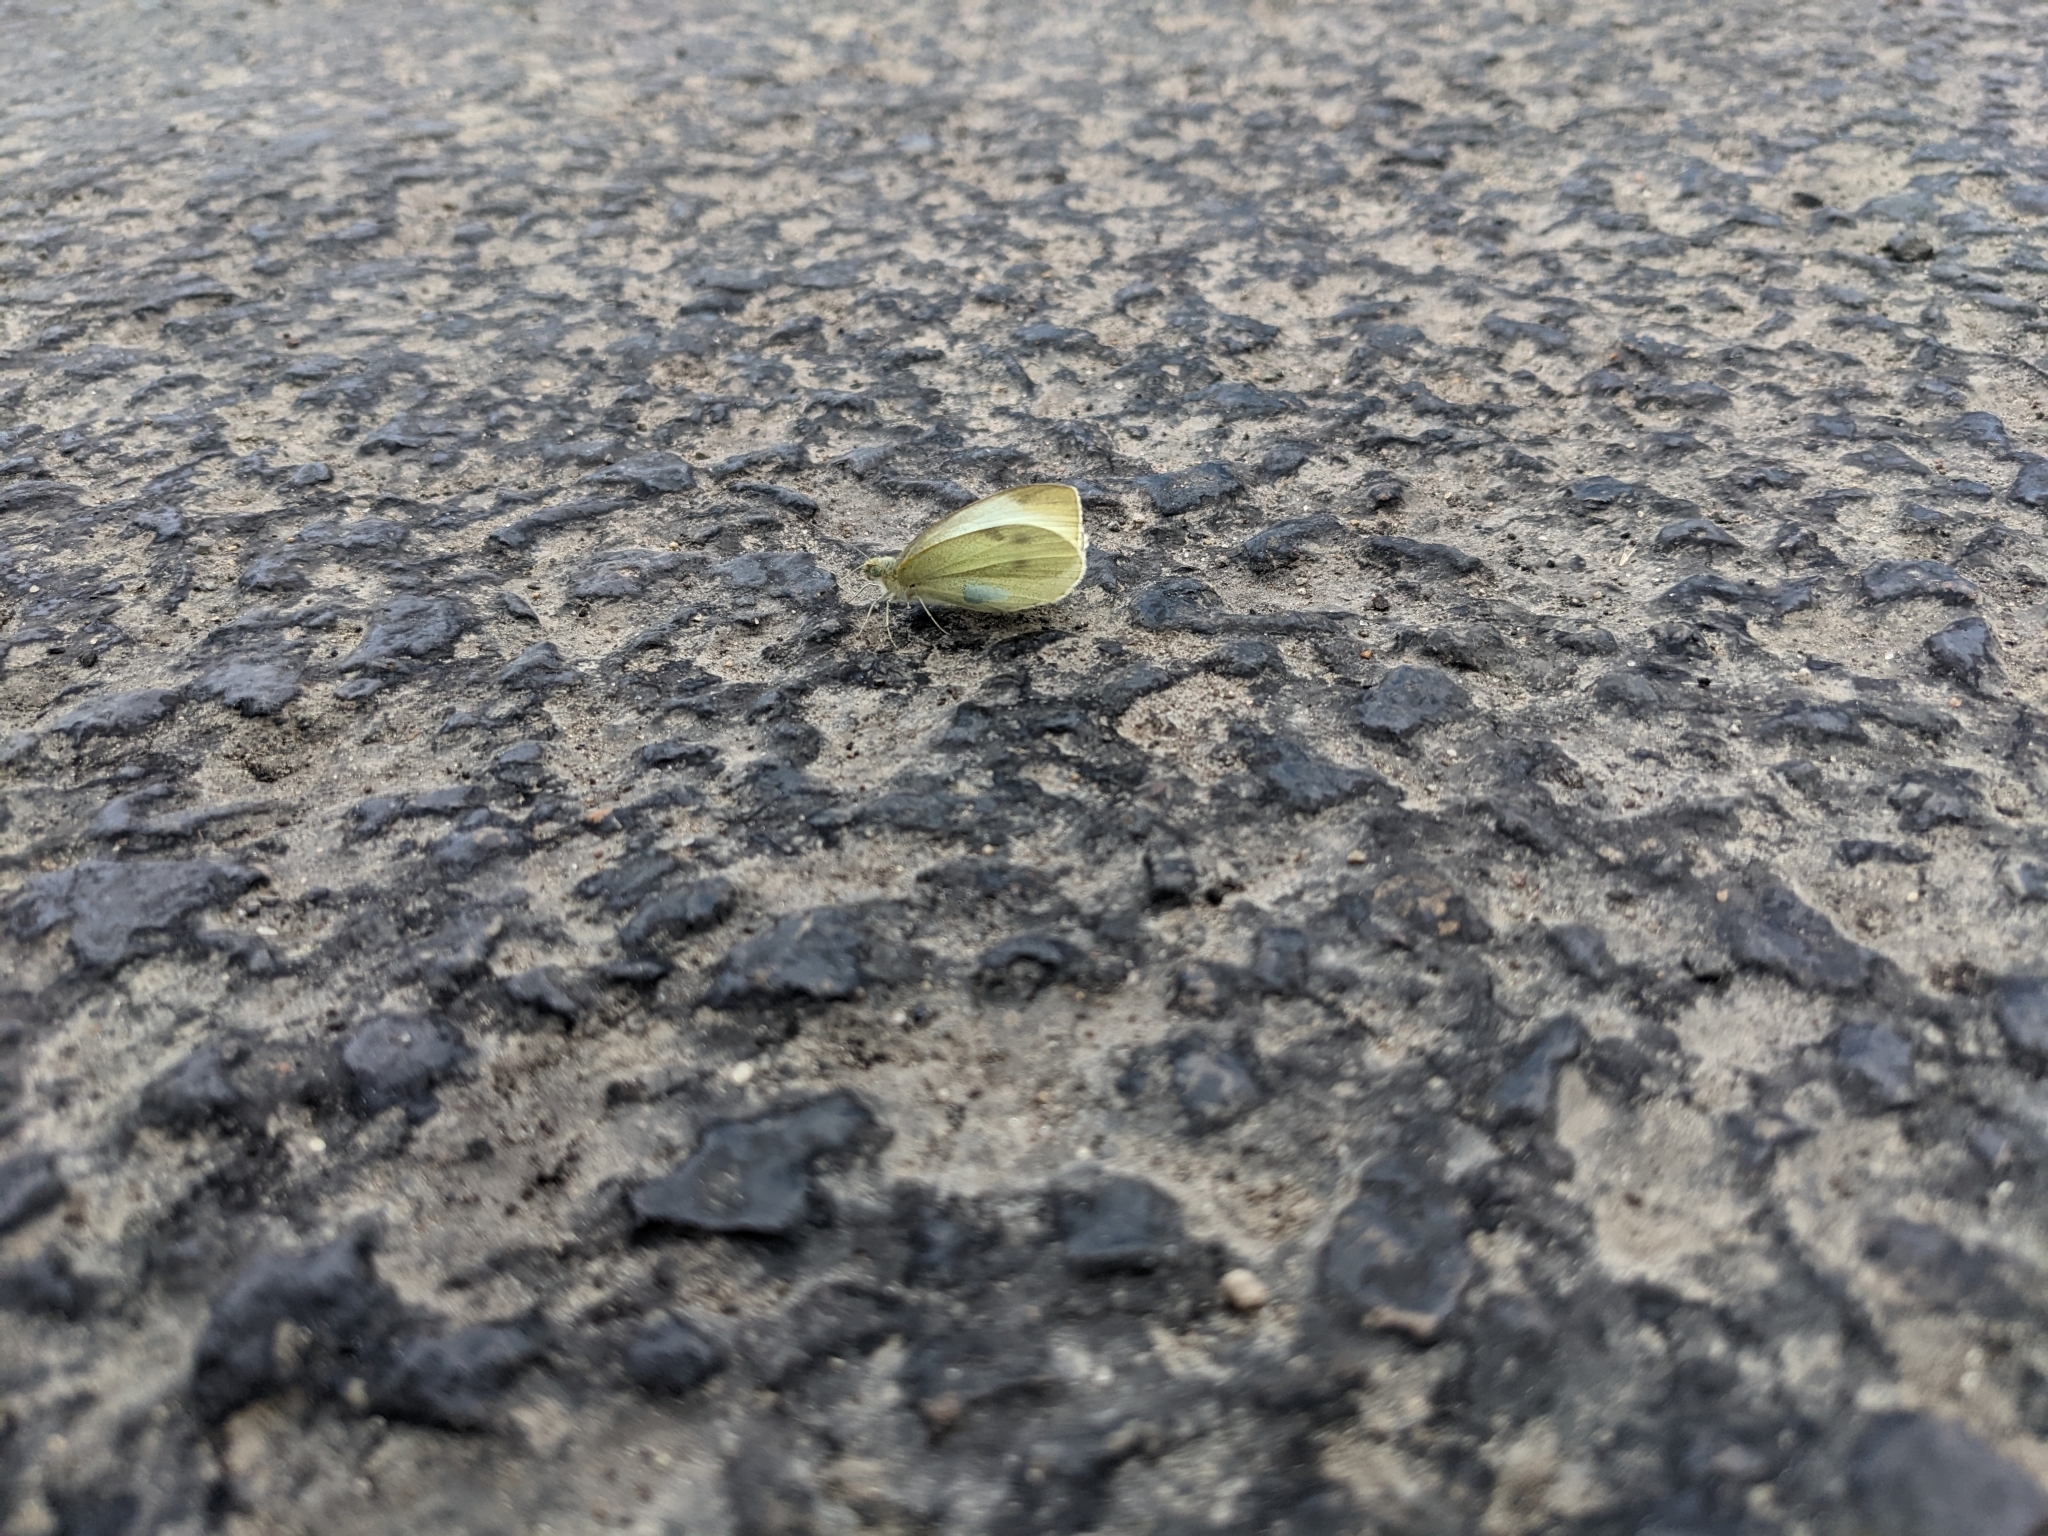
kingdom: Animalia
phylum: Arthropoda
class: Insecta
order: Lepidoptera
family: Pieridae
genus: Pieris
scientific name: Pieris rapae
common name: Small white
